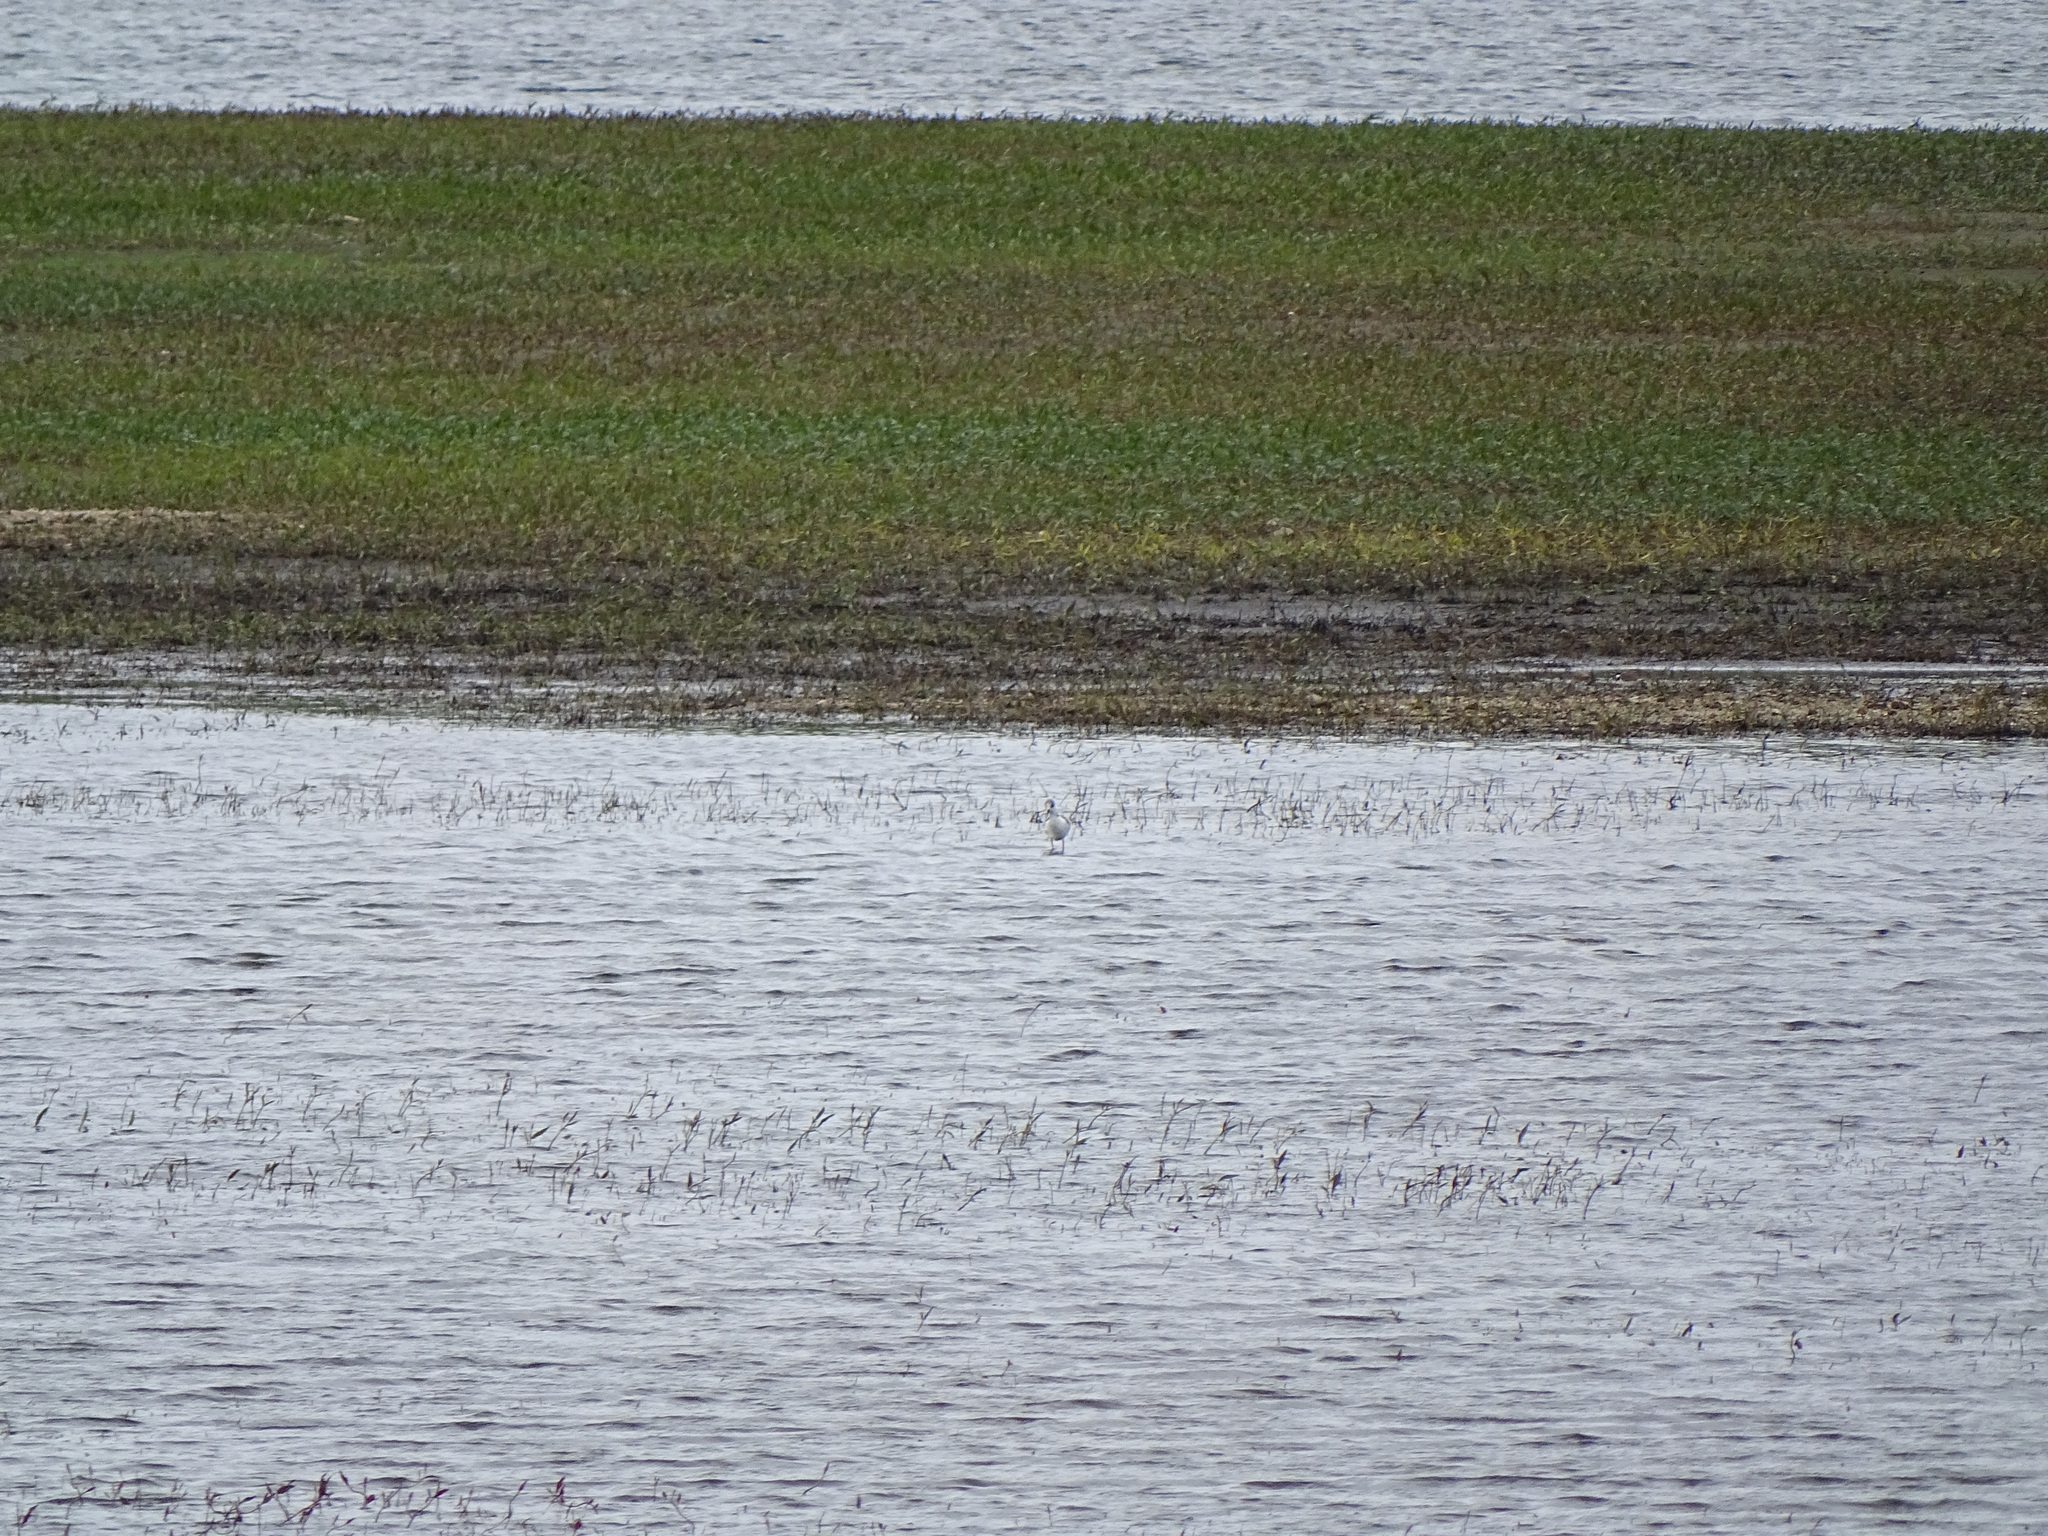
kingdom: Animalia
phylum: Chordata
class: Aves
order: Charadriiformes
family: Recurvirostridae
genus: Himantopus
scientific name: Himantopus himantopus
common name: Black-winged stilt
